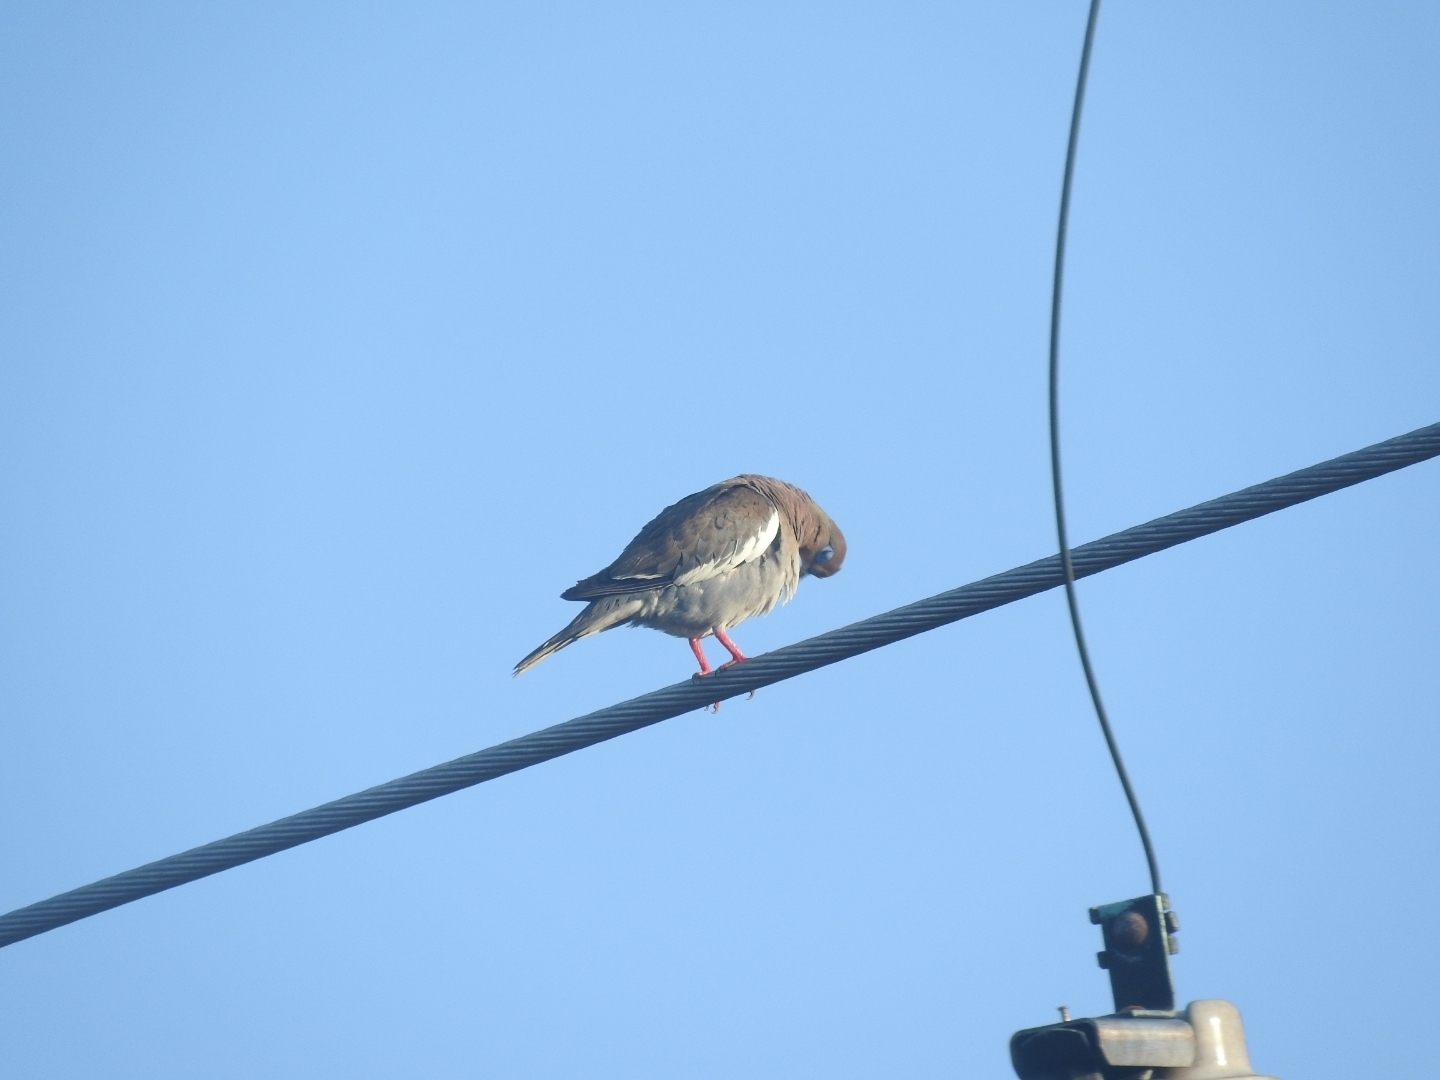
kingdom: Animalia
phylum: Chordata
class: Aves
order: Columbiformes
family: Columbidae
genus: Zenaida
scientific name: Zenaida asiatica
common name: White-winged dove
